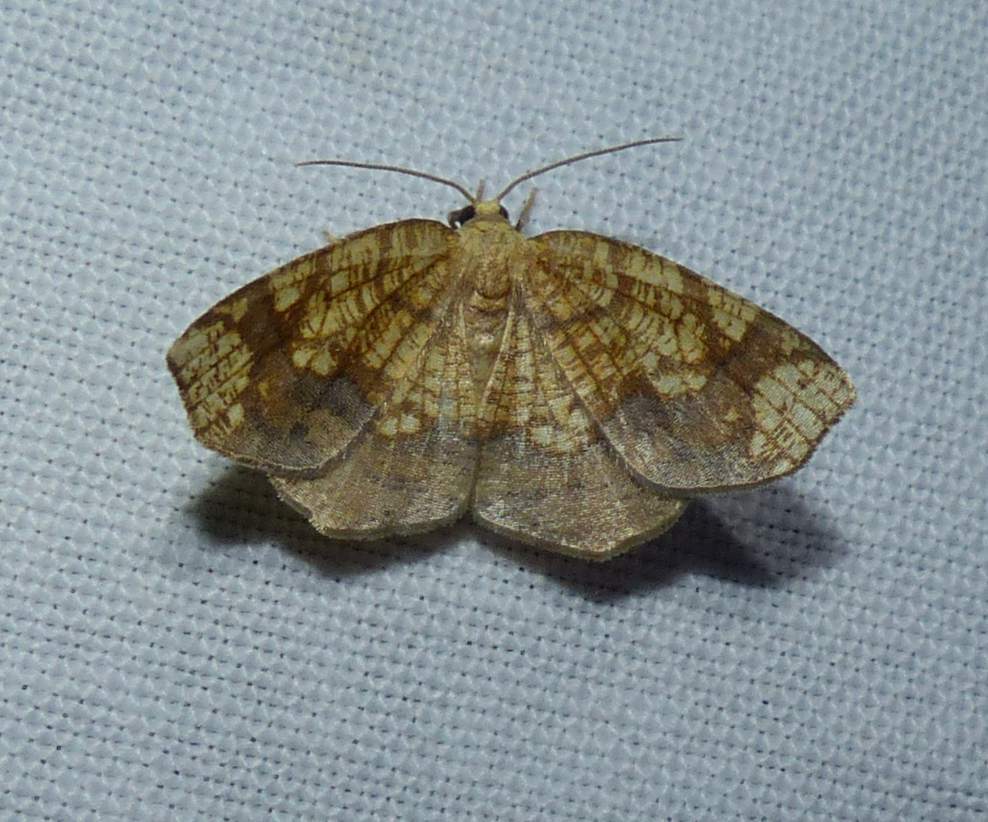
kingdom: Animalia
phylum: Arthropoda
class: Insecta
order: Lepidoptera
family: Geometridae
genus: Nematocampa
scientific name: Nematocampa resistaria
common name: Horned spanworm moth
